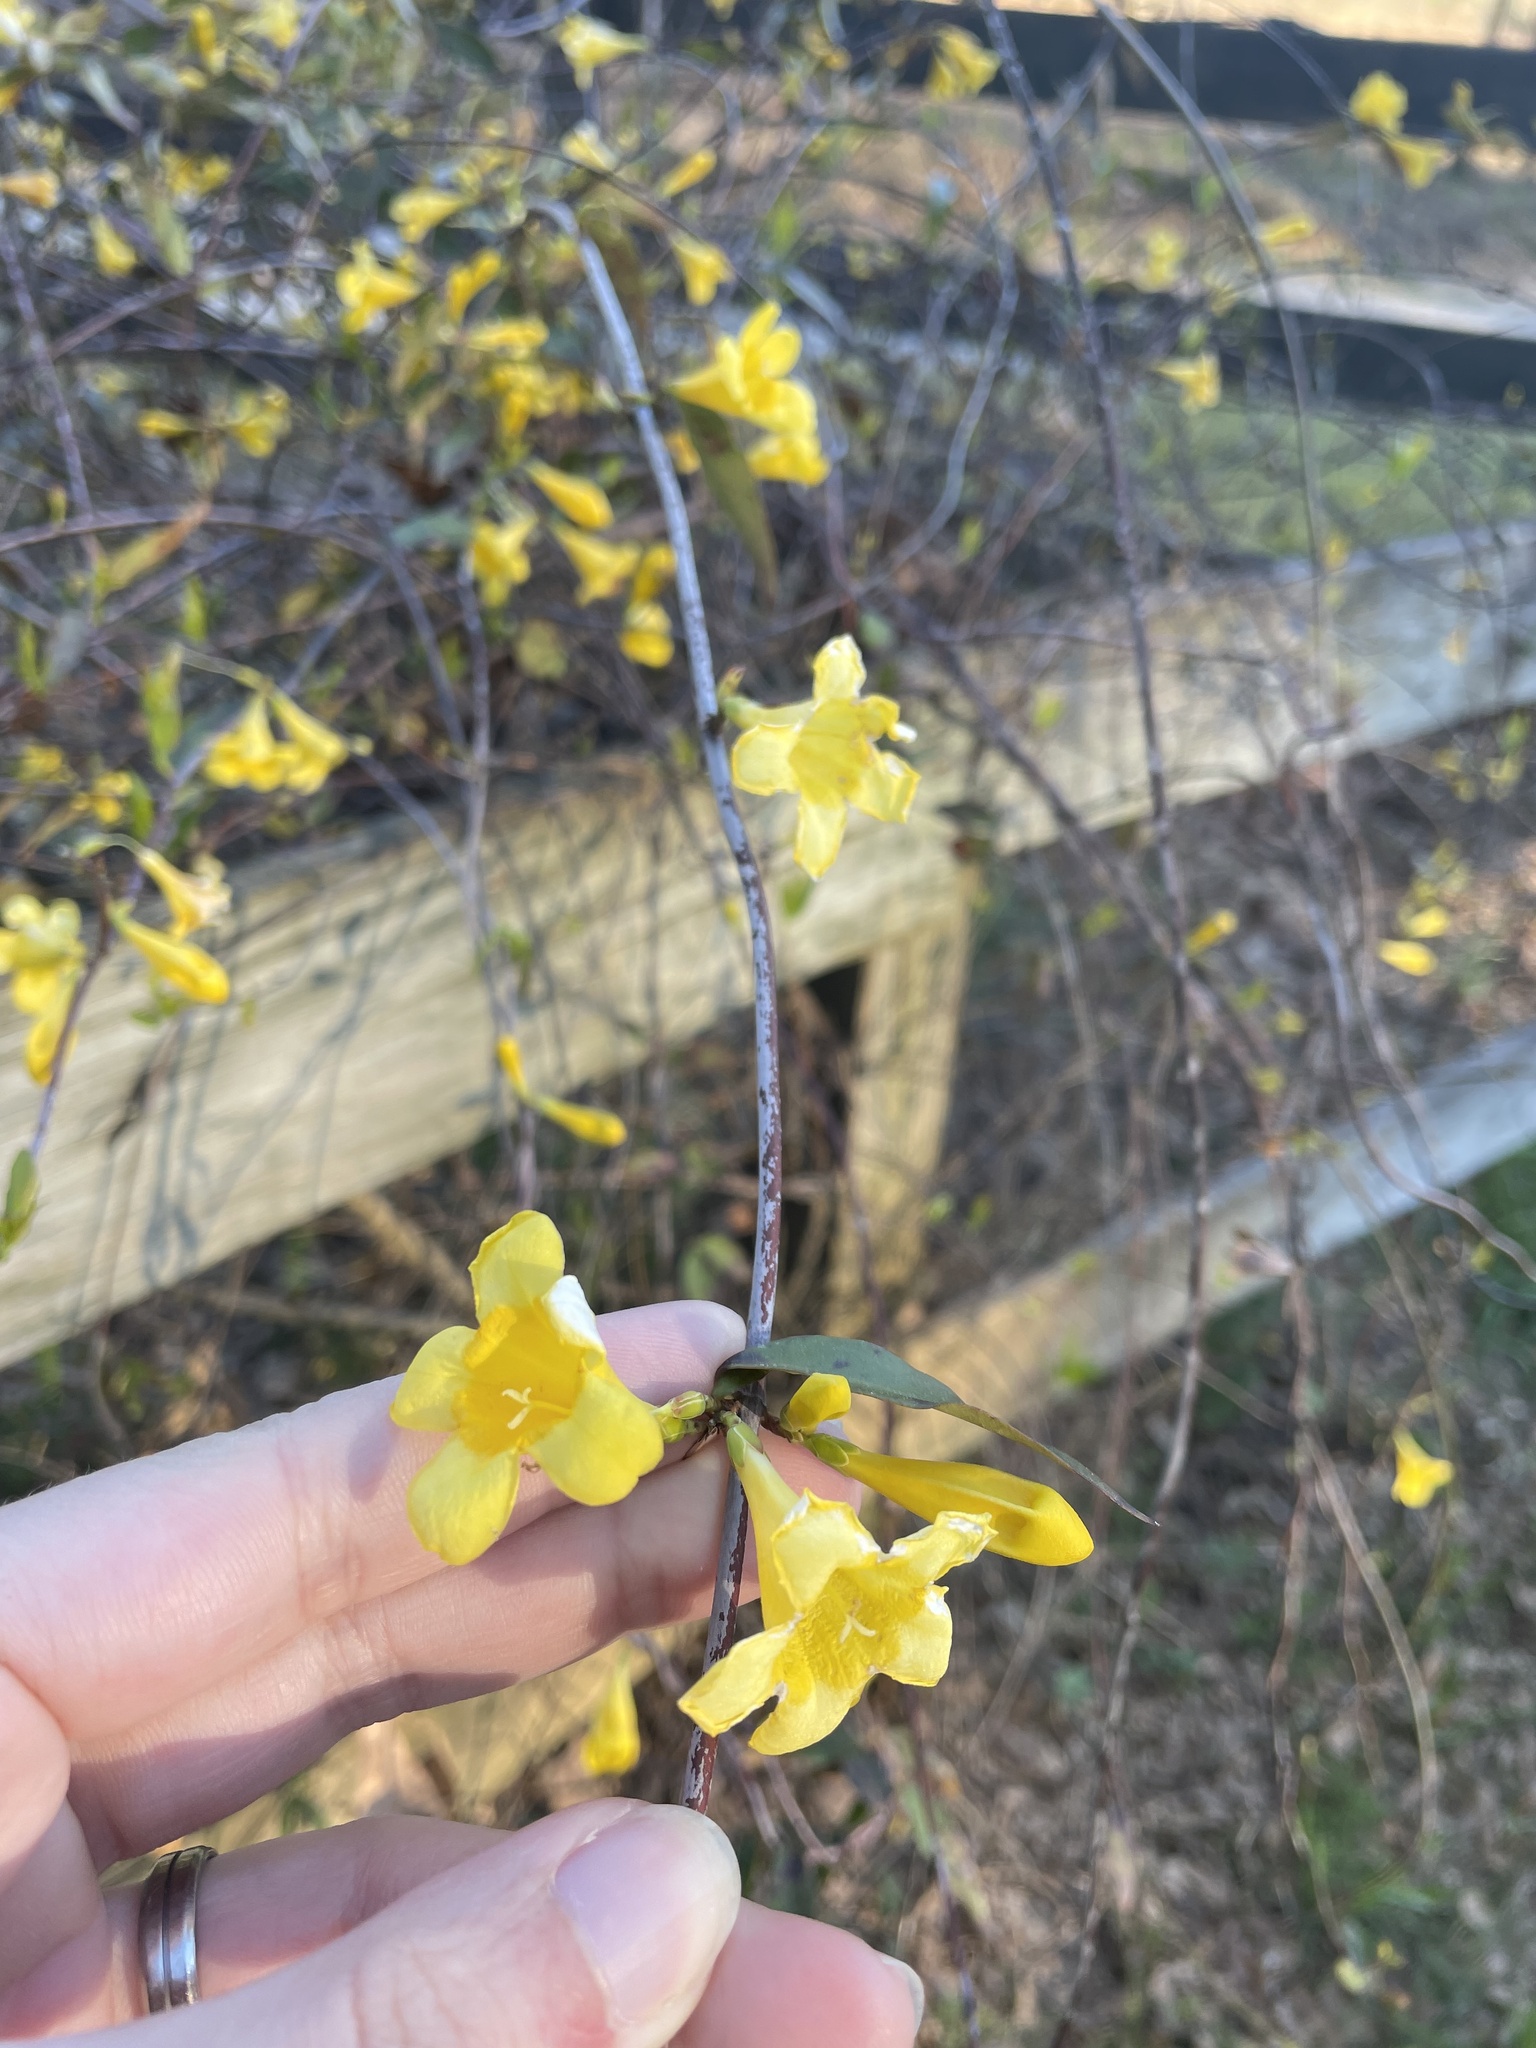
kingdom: Plantae
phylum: Tracheophyta
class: Magnoliopsida
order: Gentianales
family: Gelsemiaceae
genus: Gelsemium
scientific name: Gelsemium sempervirens
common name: Carolina-jasmine
